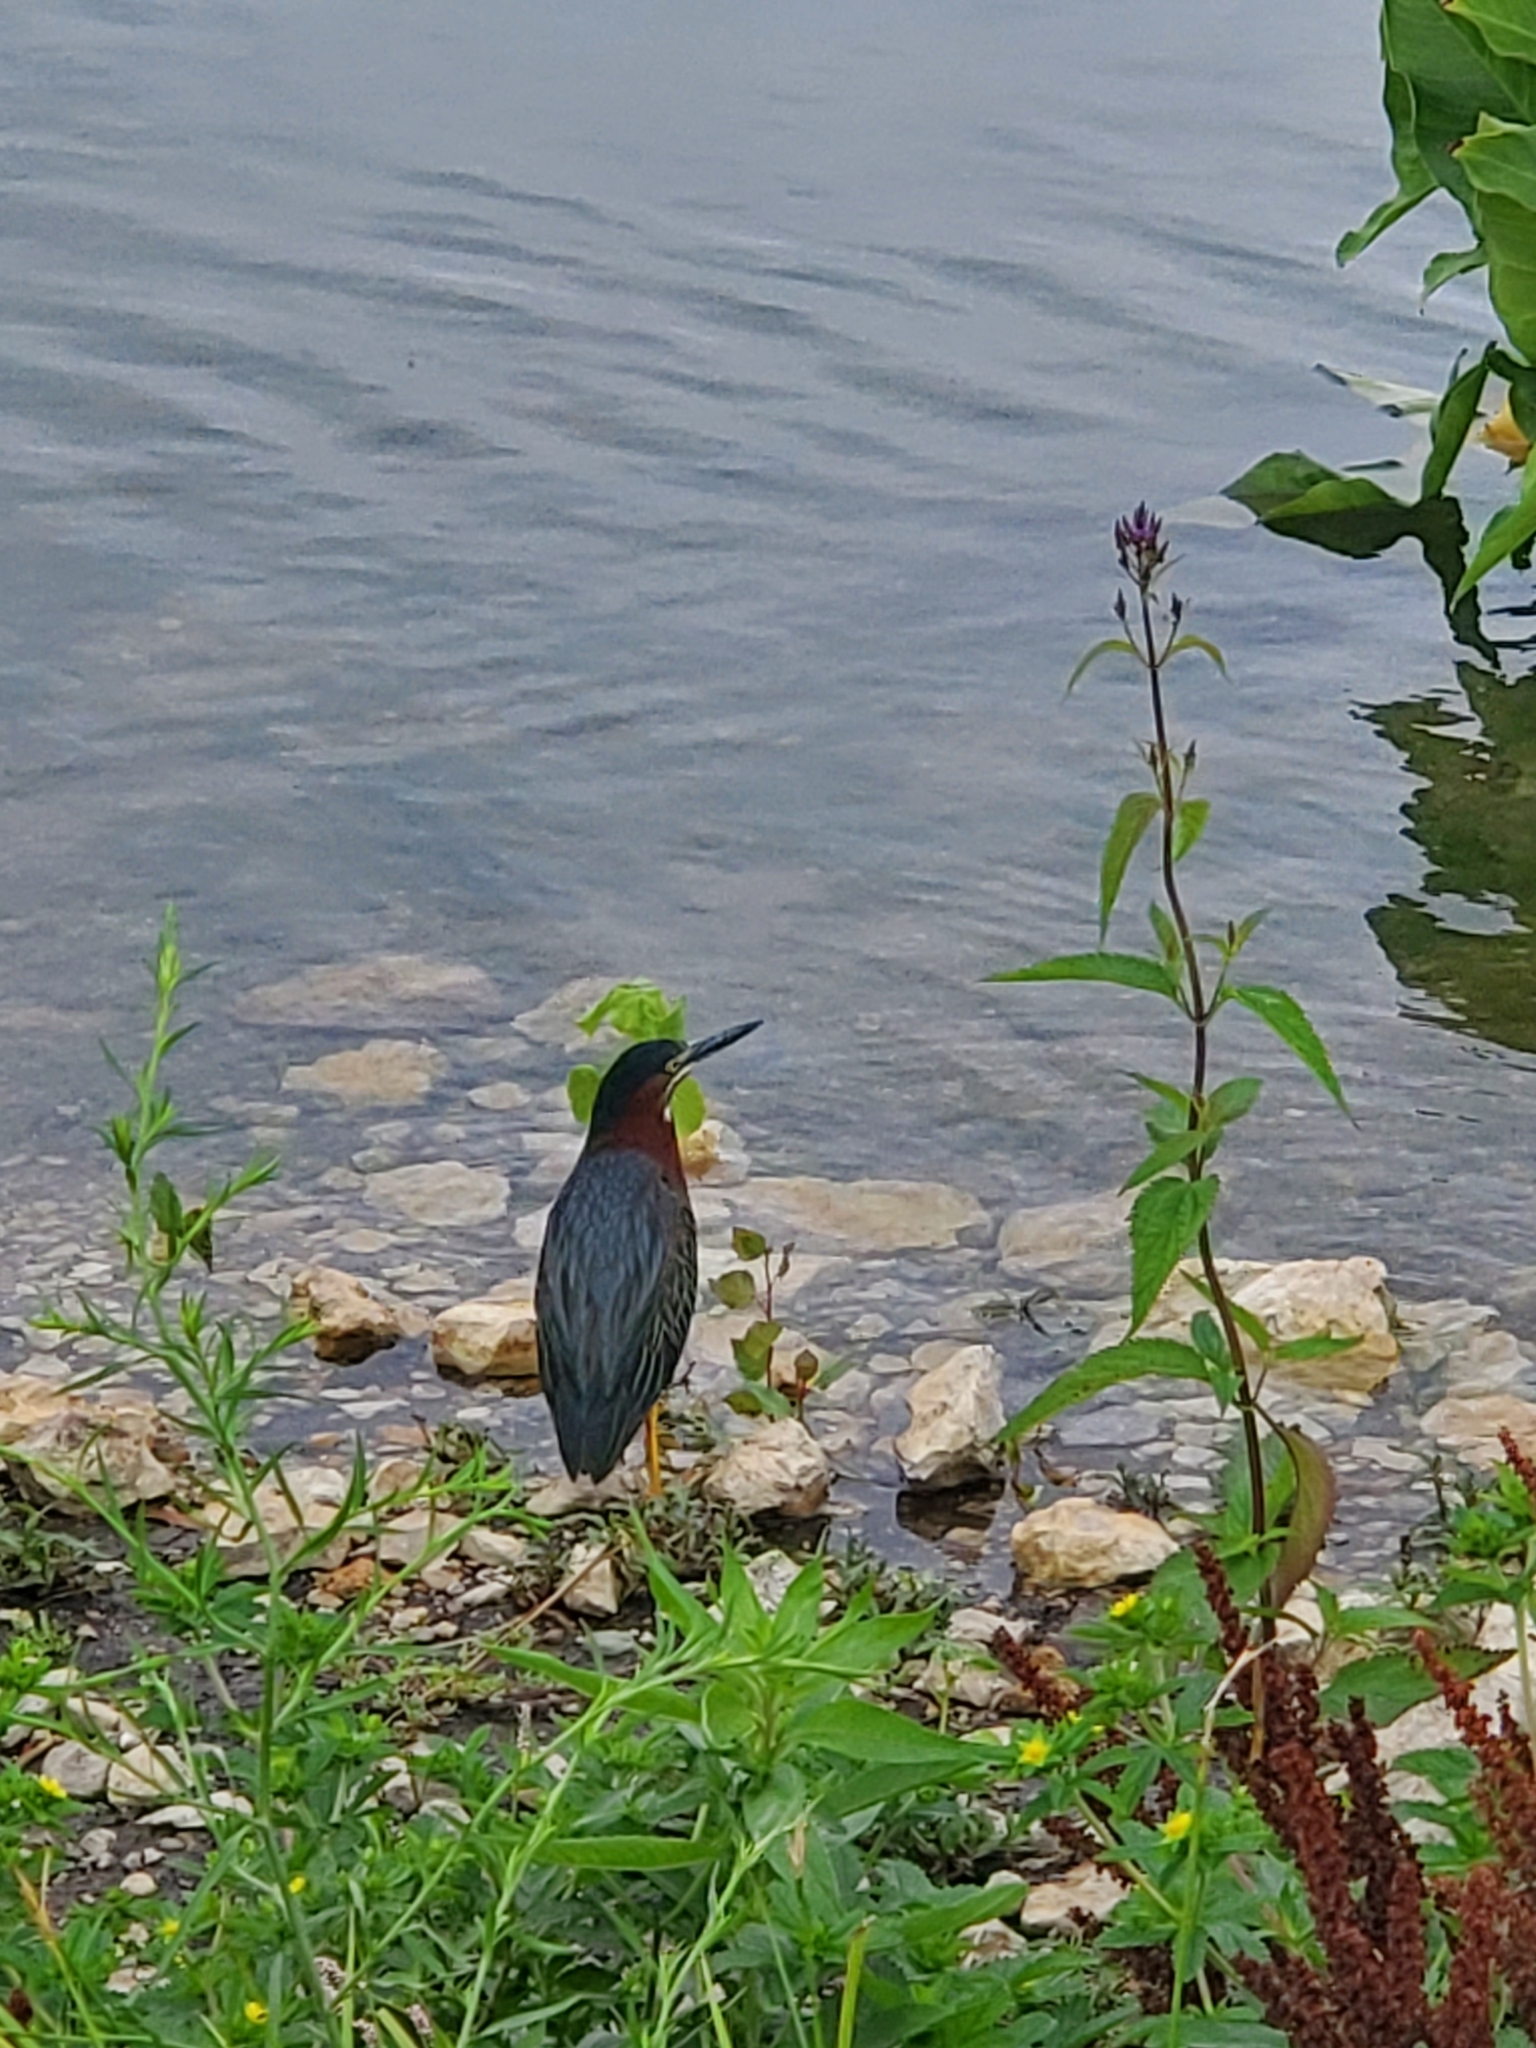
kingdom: Animalia
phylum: Chordata
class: Aves
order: Pelecaniformes
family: Ardeidae
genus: Butorides
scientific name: Butorides virescens
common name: Green heron
